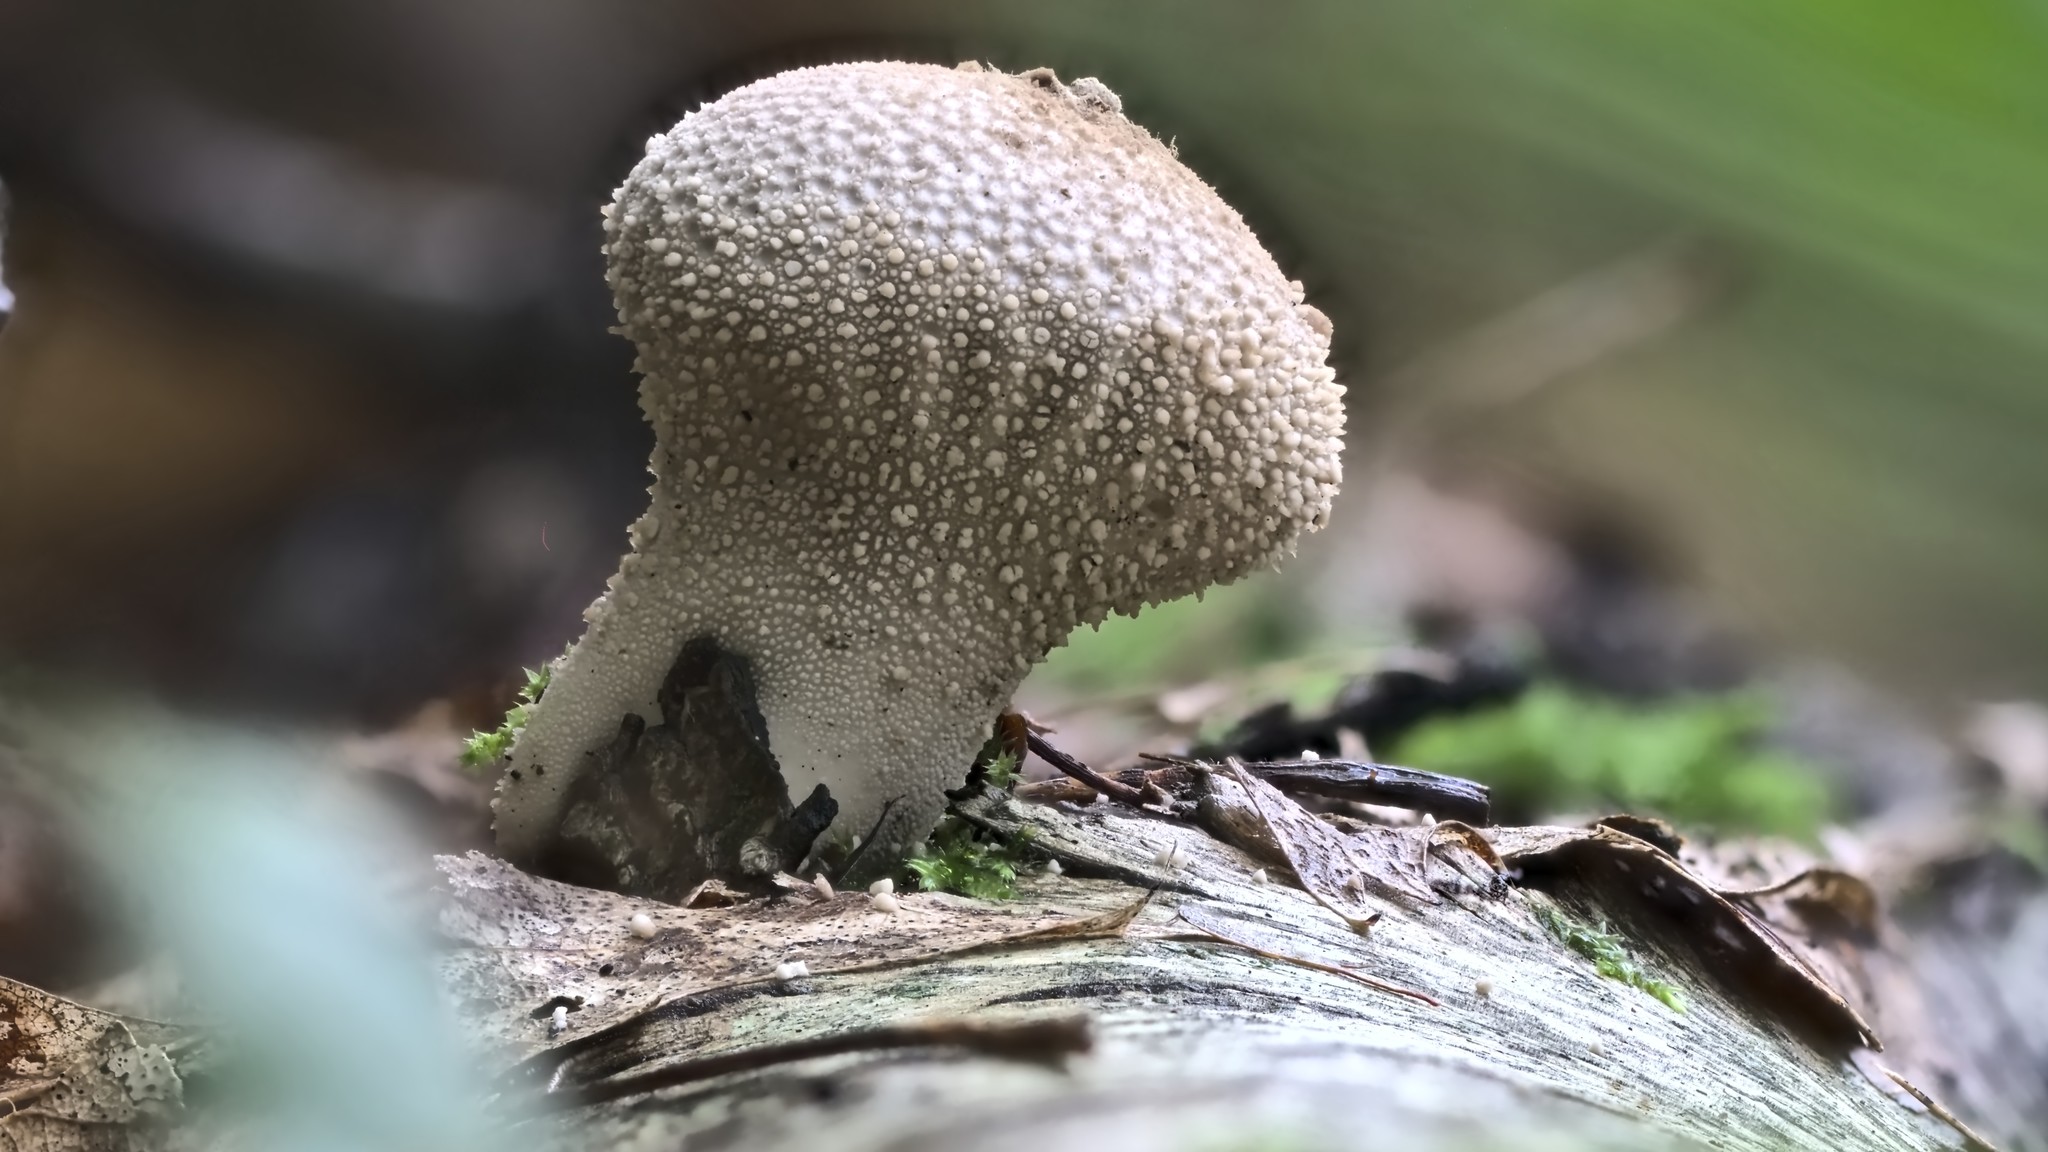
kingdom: Fungi
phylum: Basidiomycota
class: Agaricomycetes
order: Agaricales
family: Lycoperdaceae
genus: Lycoperdon
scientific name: Lycoperdon perlatum
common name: Common puffball
